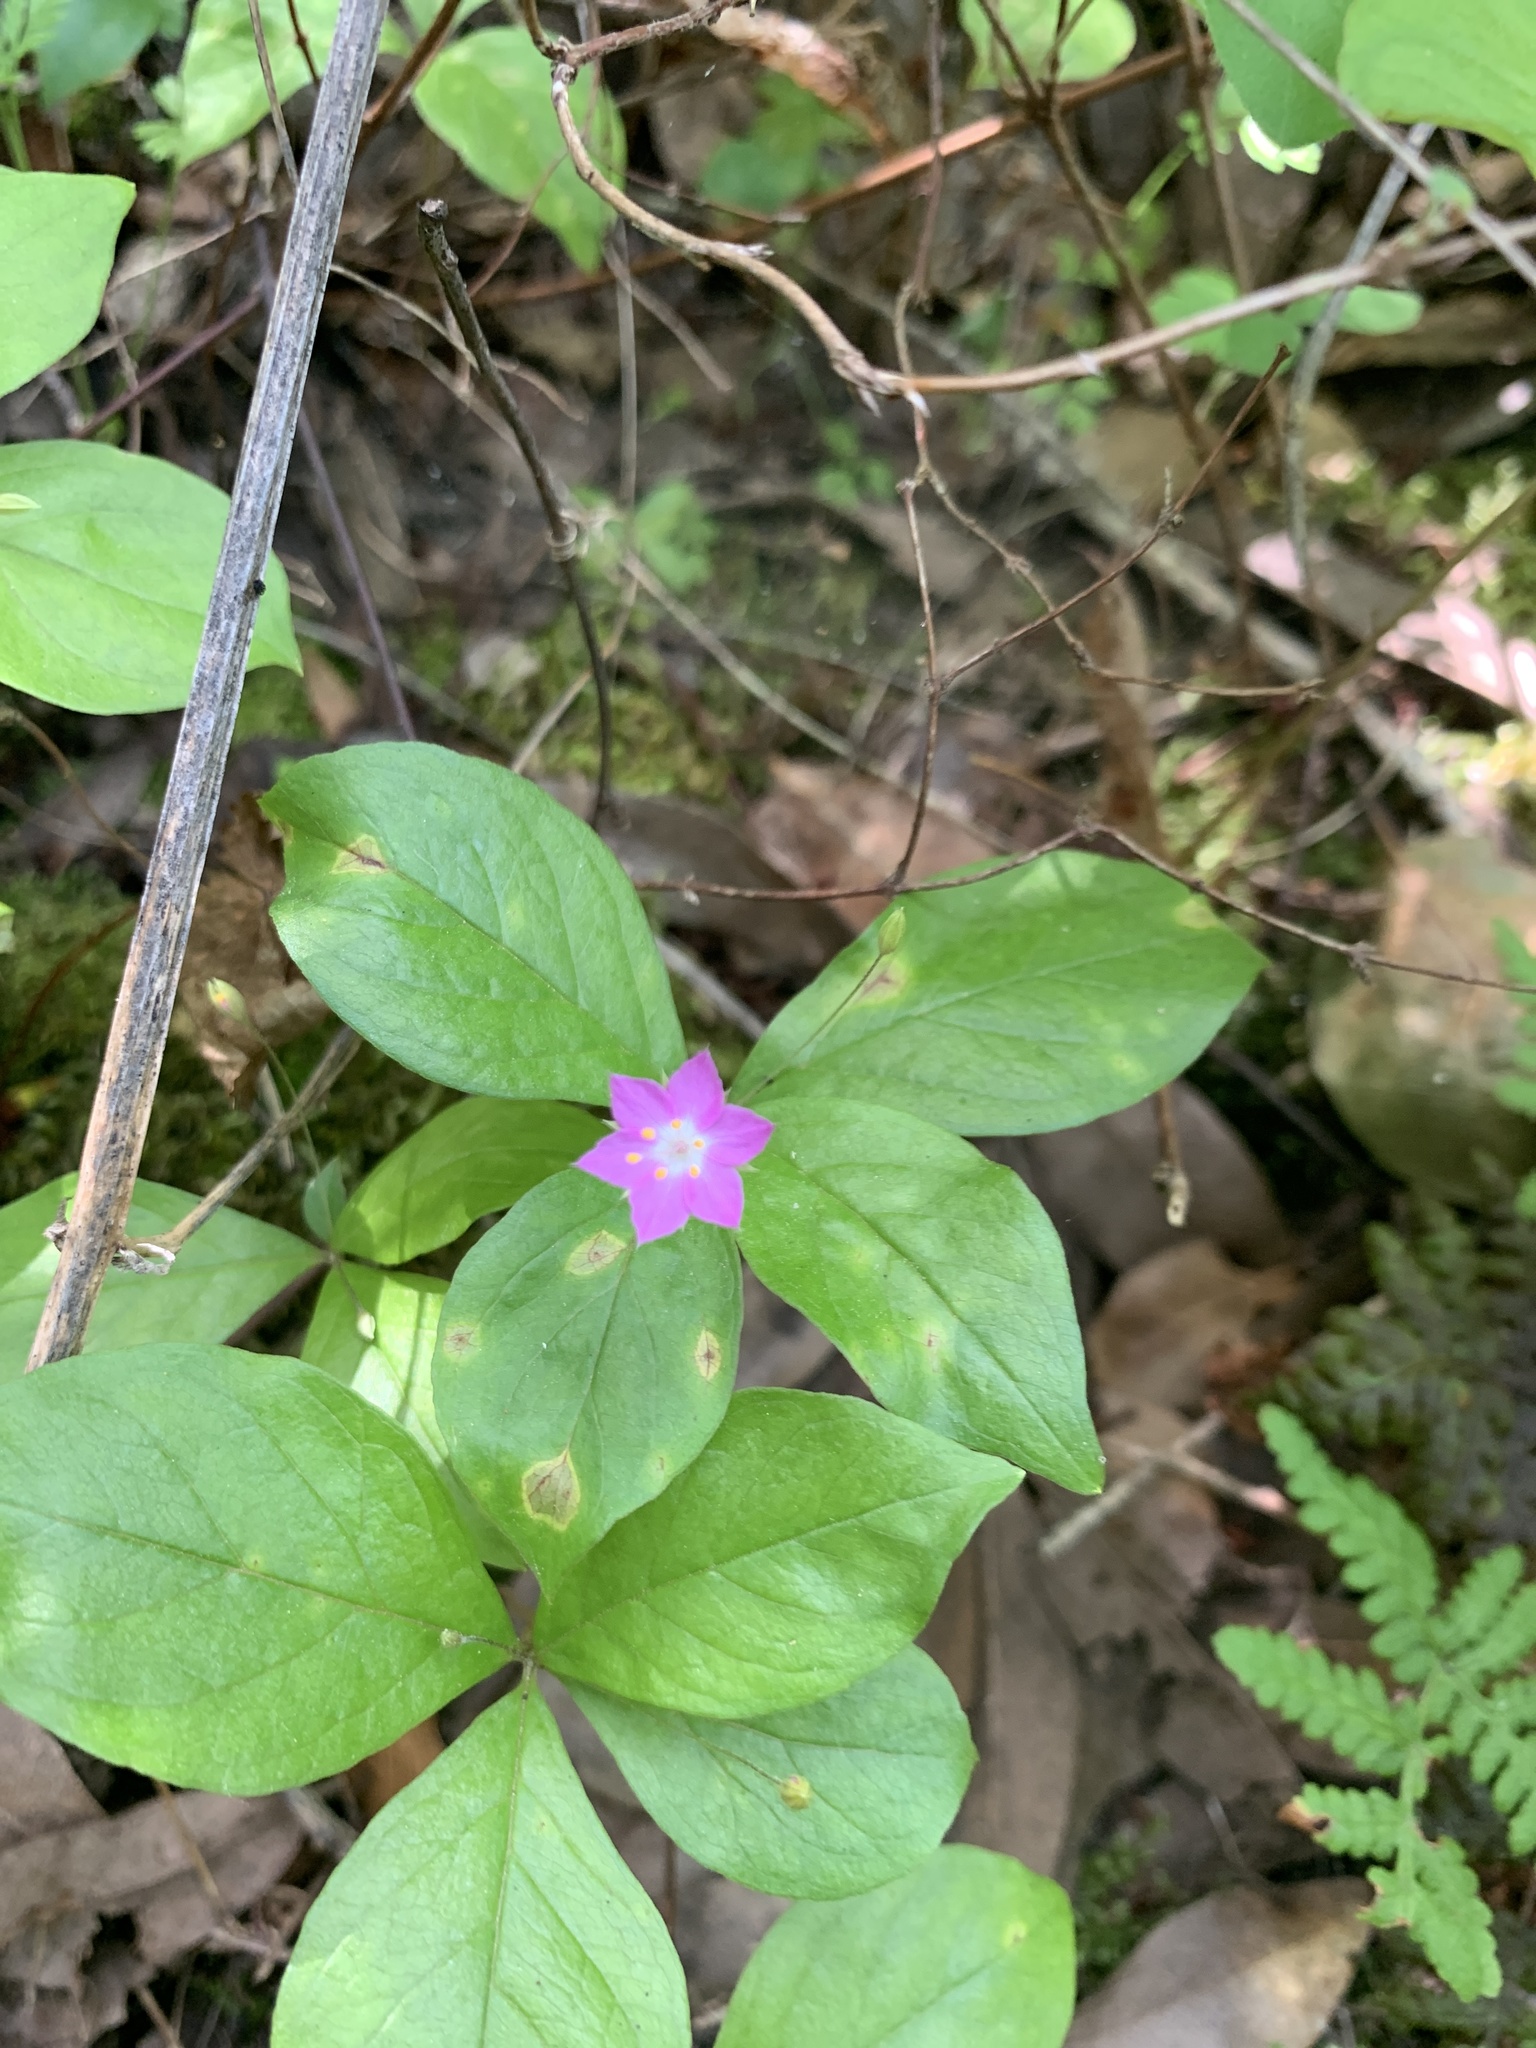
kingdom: Plantae
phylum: Tracheophyta
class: Magnoliopsida
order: Ericales
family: Primulaceae
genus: Lysimachia
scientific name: Lysimachia latifolia
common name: Pacific starflower
